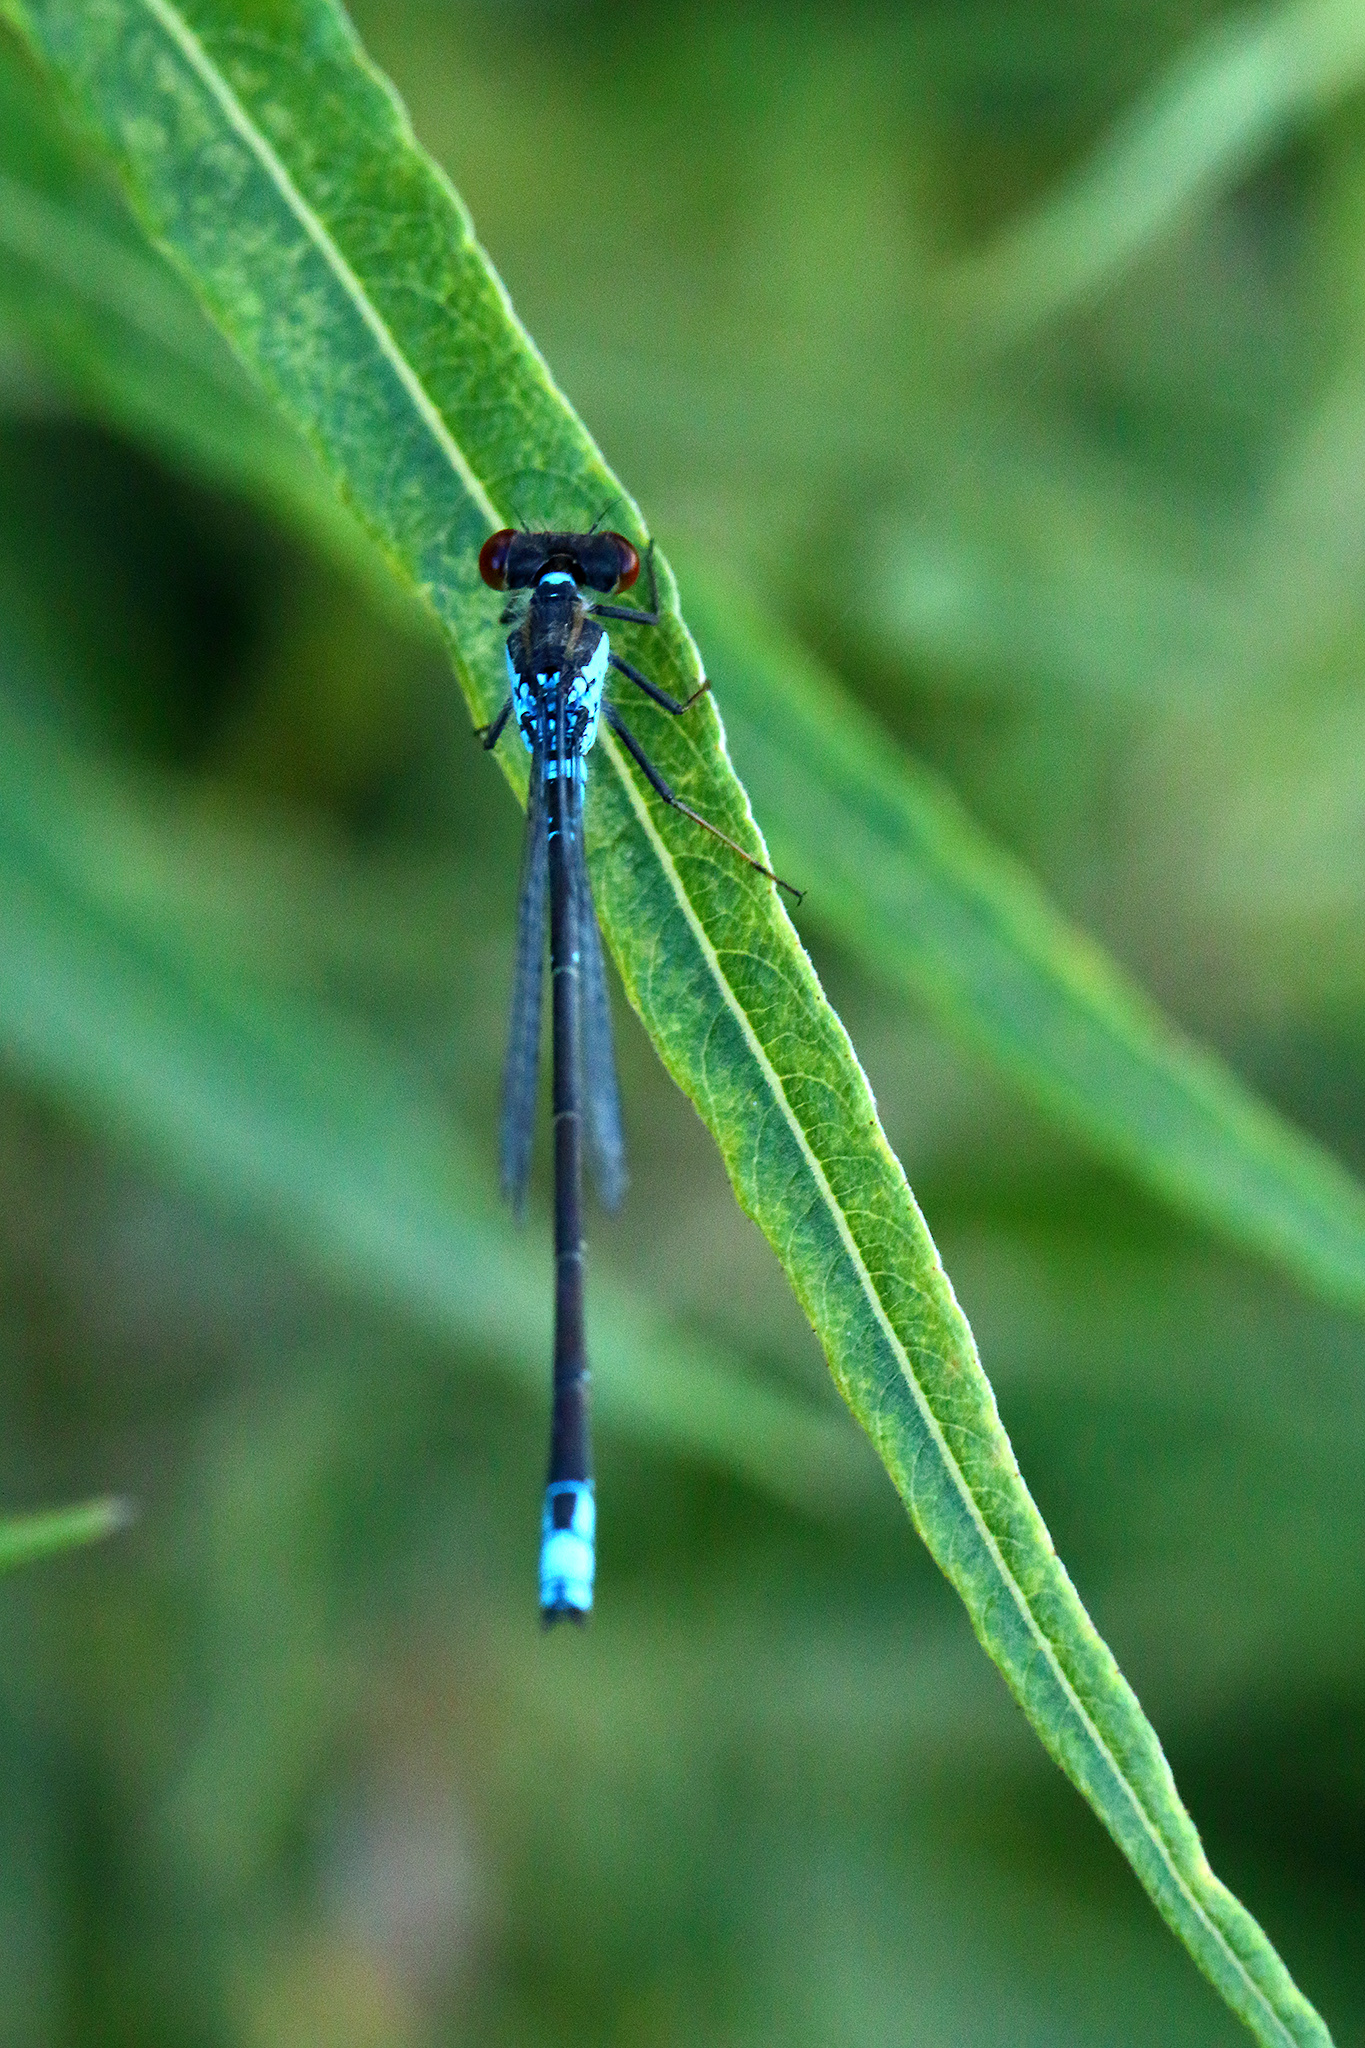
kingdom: Animalia
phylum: Arthropoda
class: Insecta
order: Odonata
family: Coenagrionidae
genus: Erythromma
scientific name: Erythromma viridulum
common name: Small red-eyed damselfly
